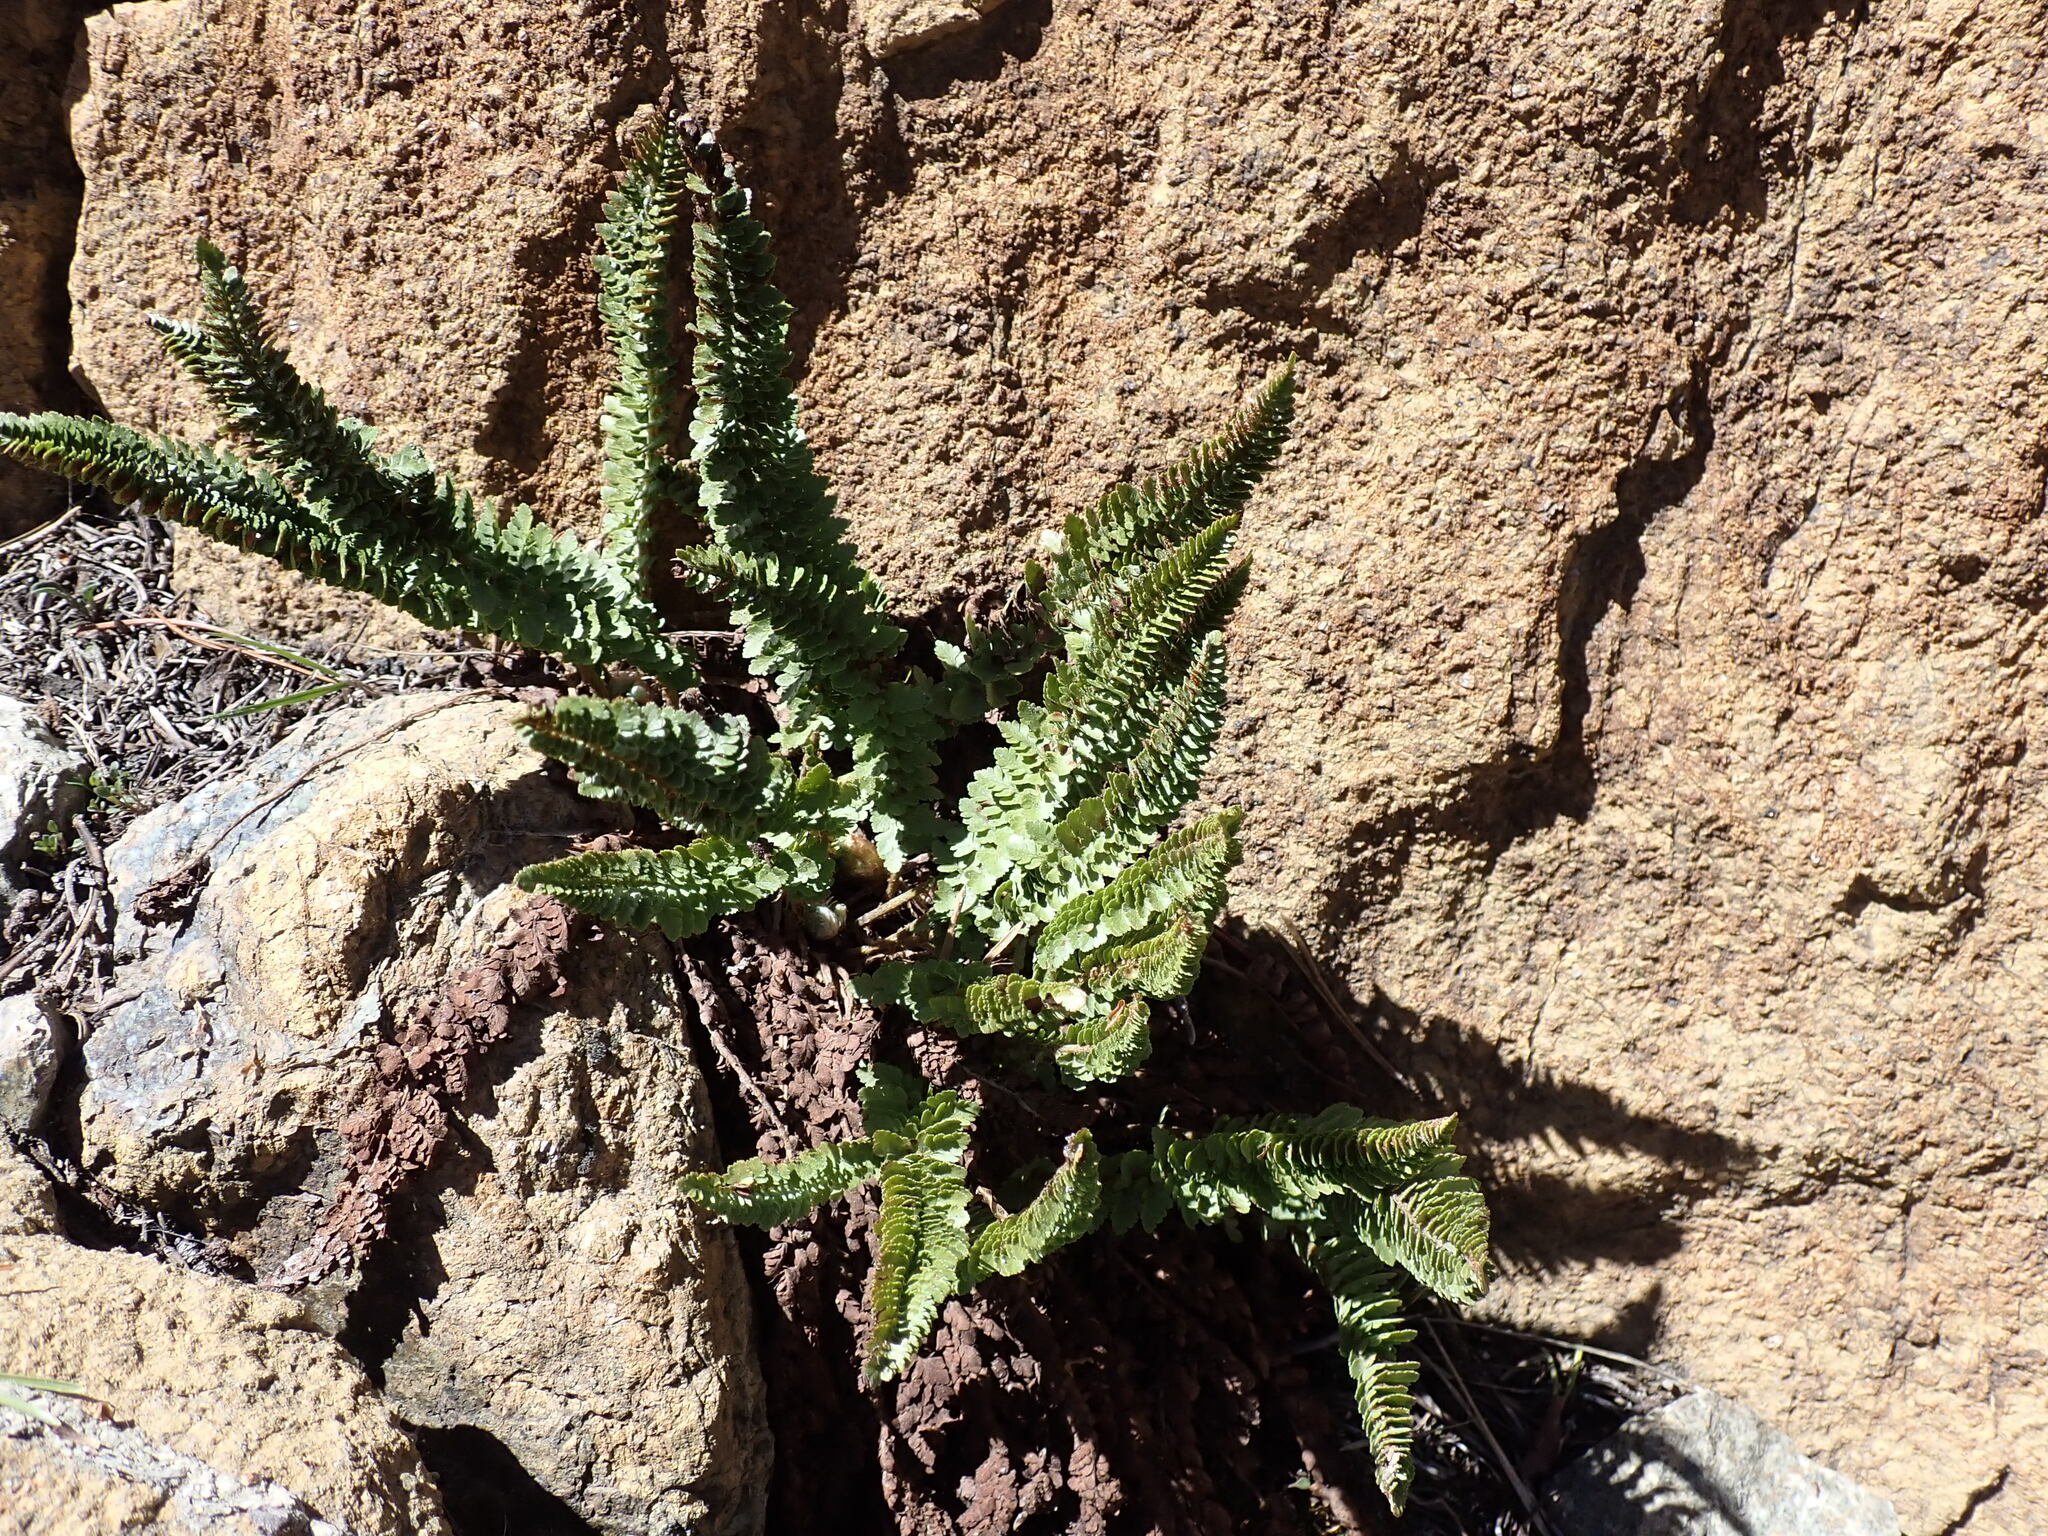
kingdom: Plantae
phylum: Tracheophyta
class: Polypodiopsida
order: Polypodiales
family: Dryopteridaceae
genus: Polystichum
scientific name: Polystichum lemmonii
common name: Lemmon's holly fern
